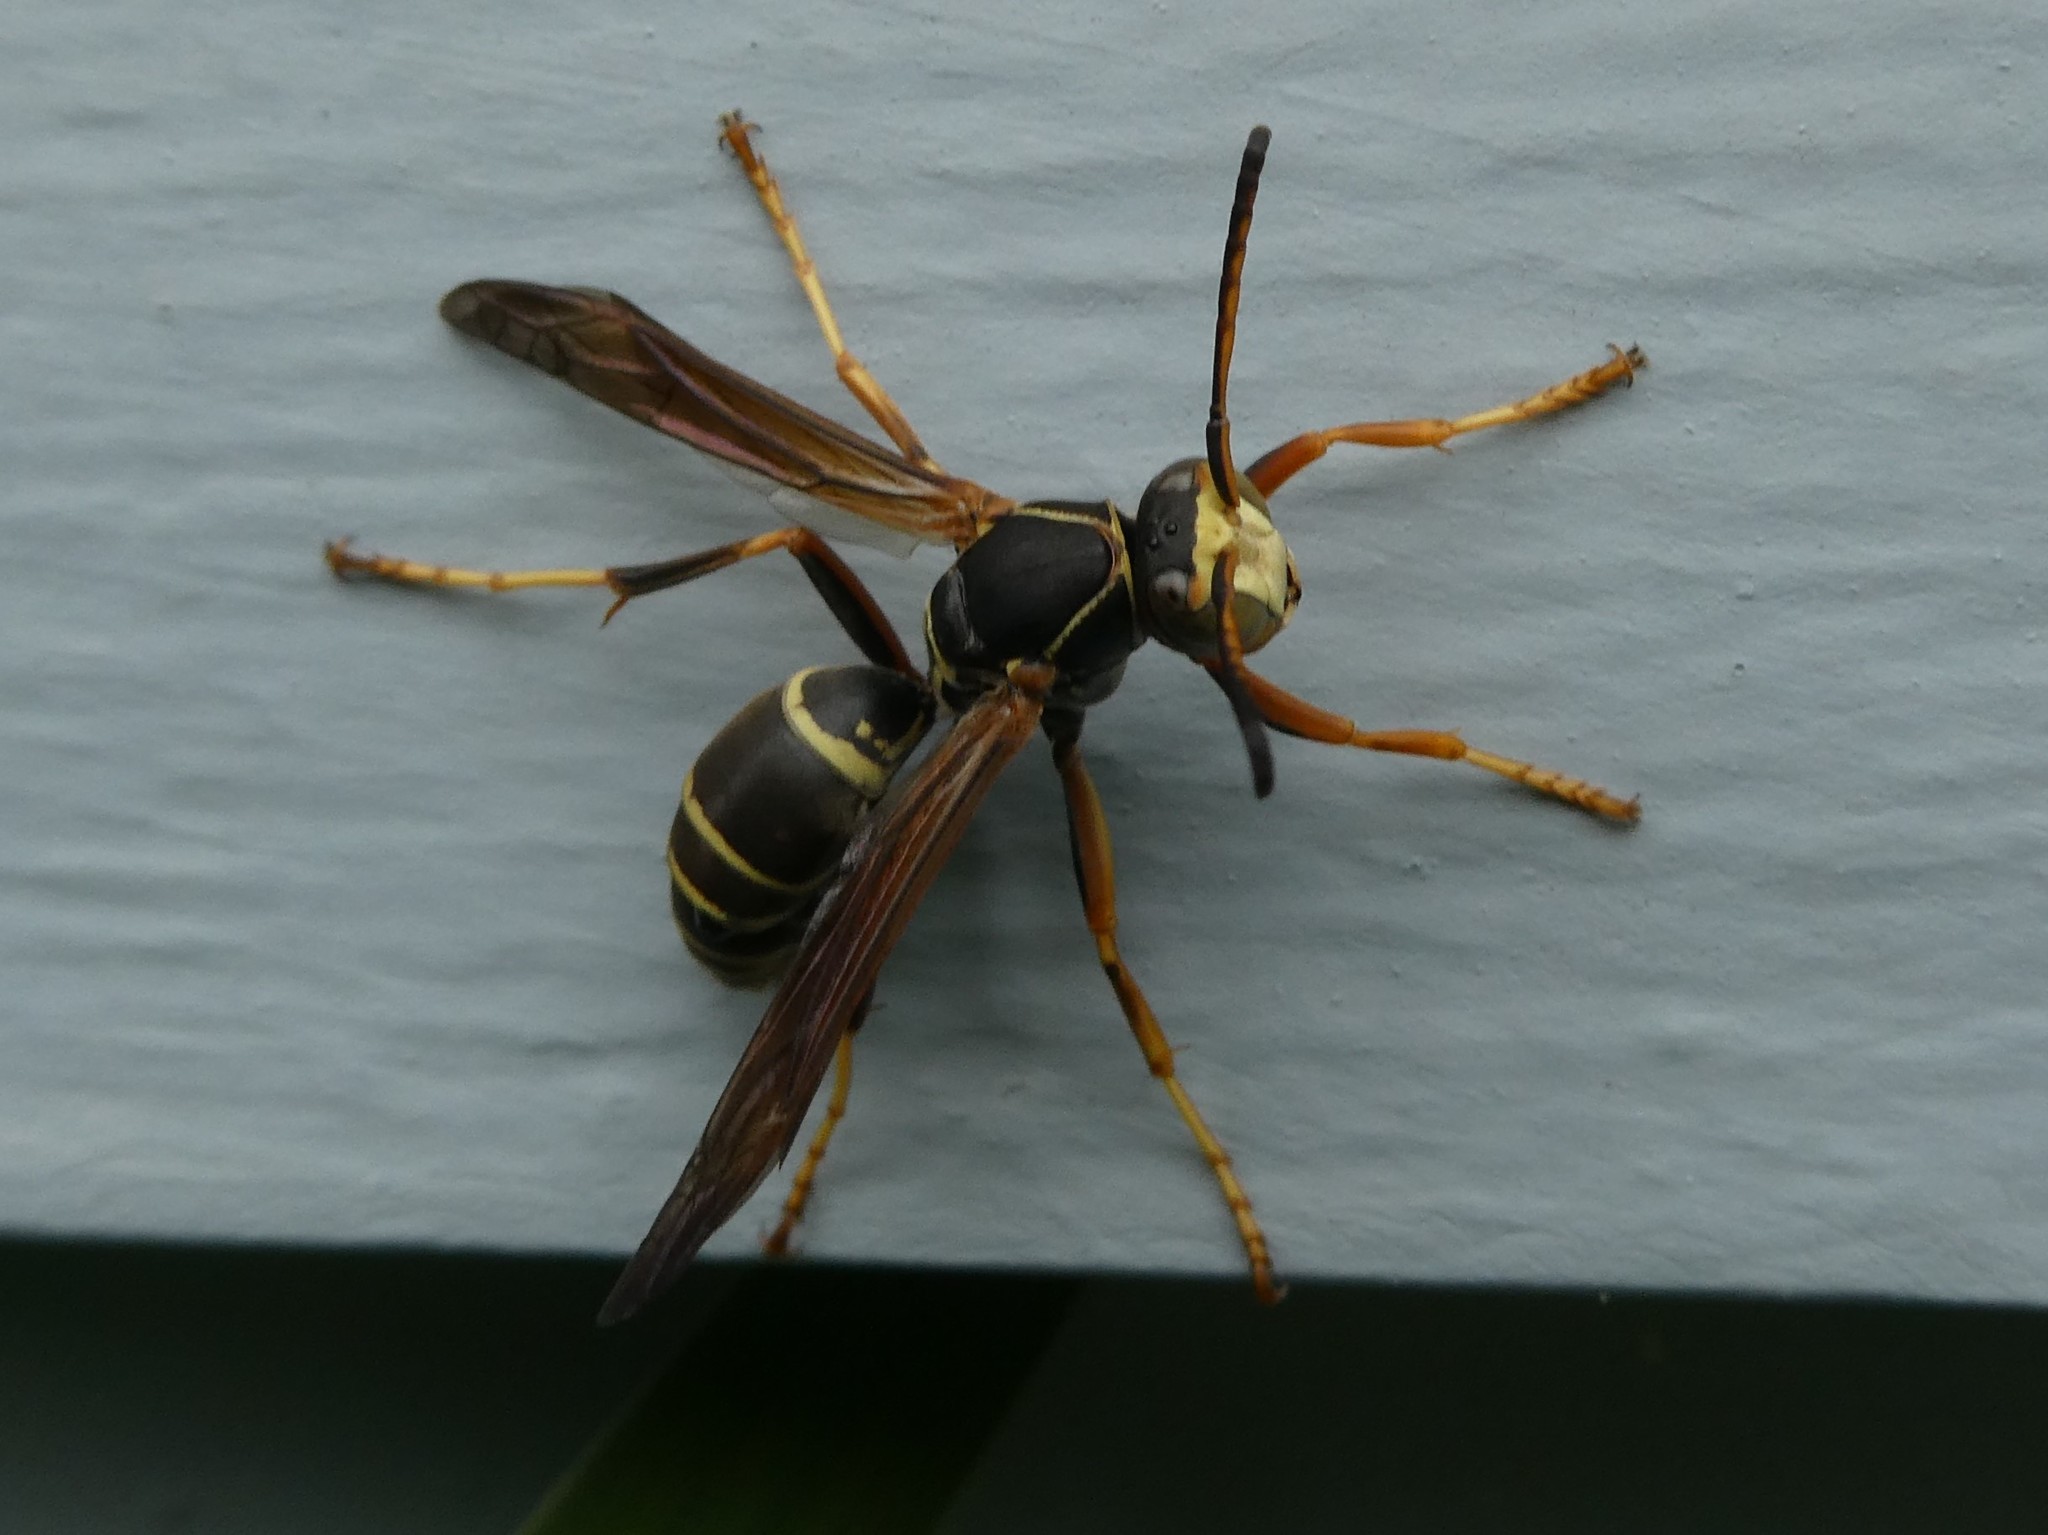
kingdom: Animalia
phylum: Arthropoda
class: Insecta
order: Hymenoptera
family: Eumenidae
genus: Polistes
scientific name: Polistes fuscatus
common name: Dark paper wasp
